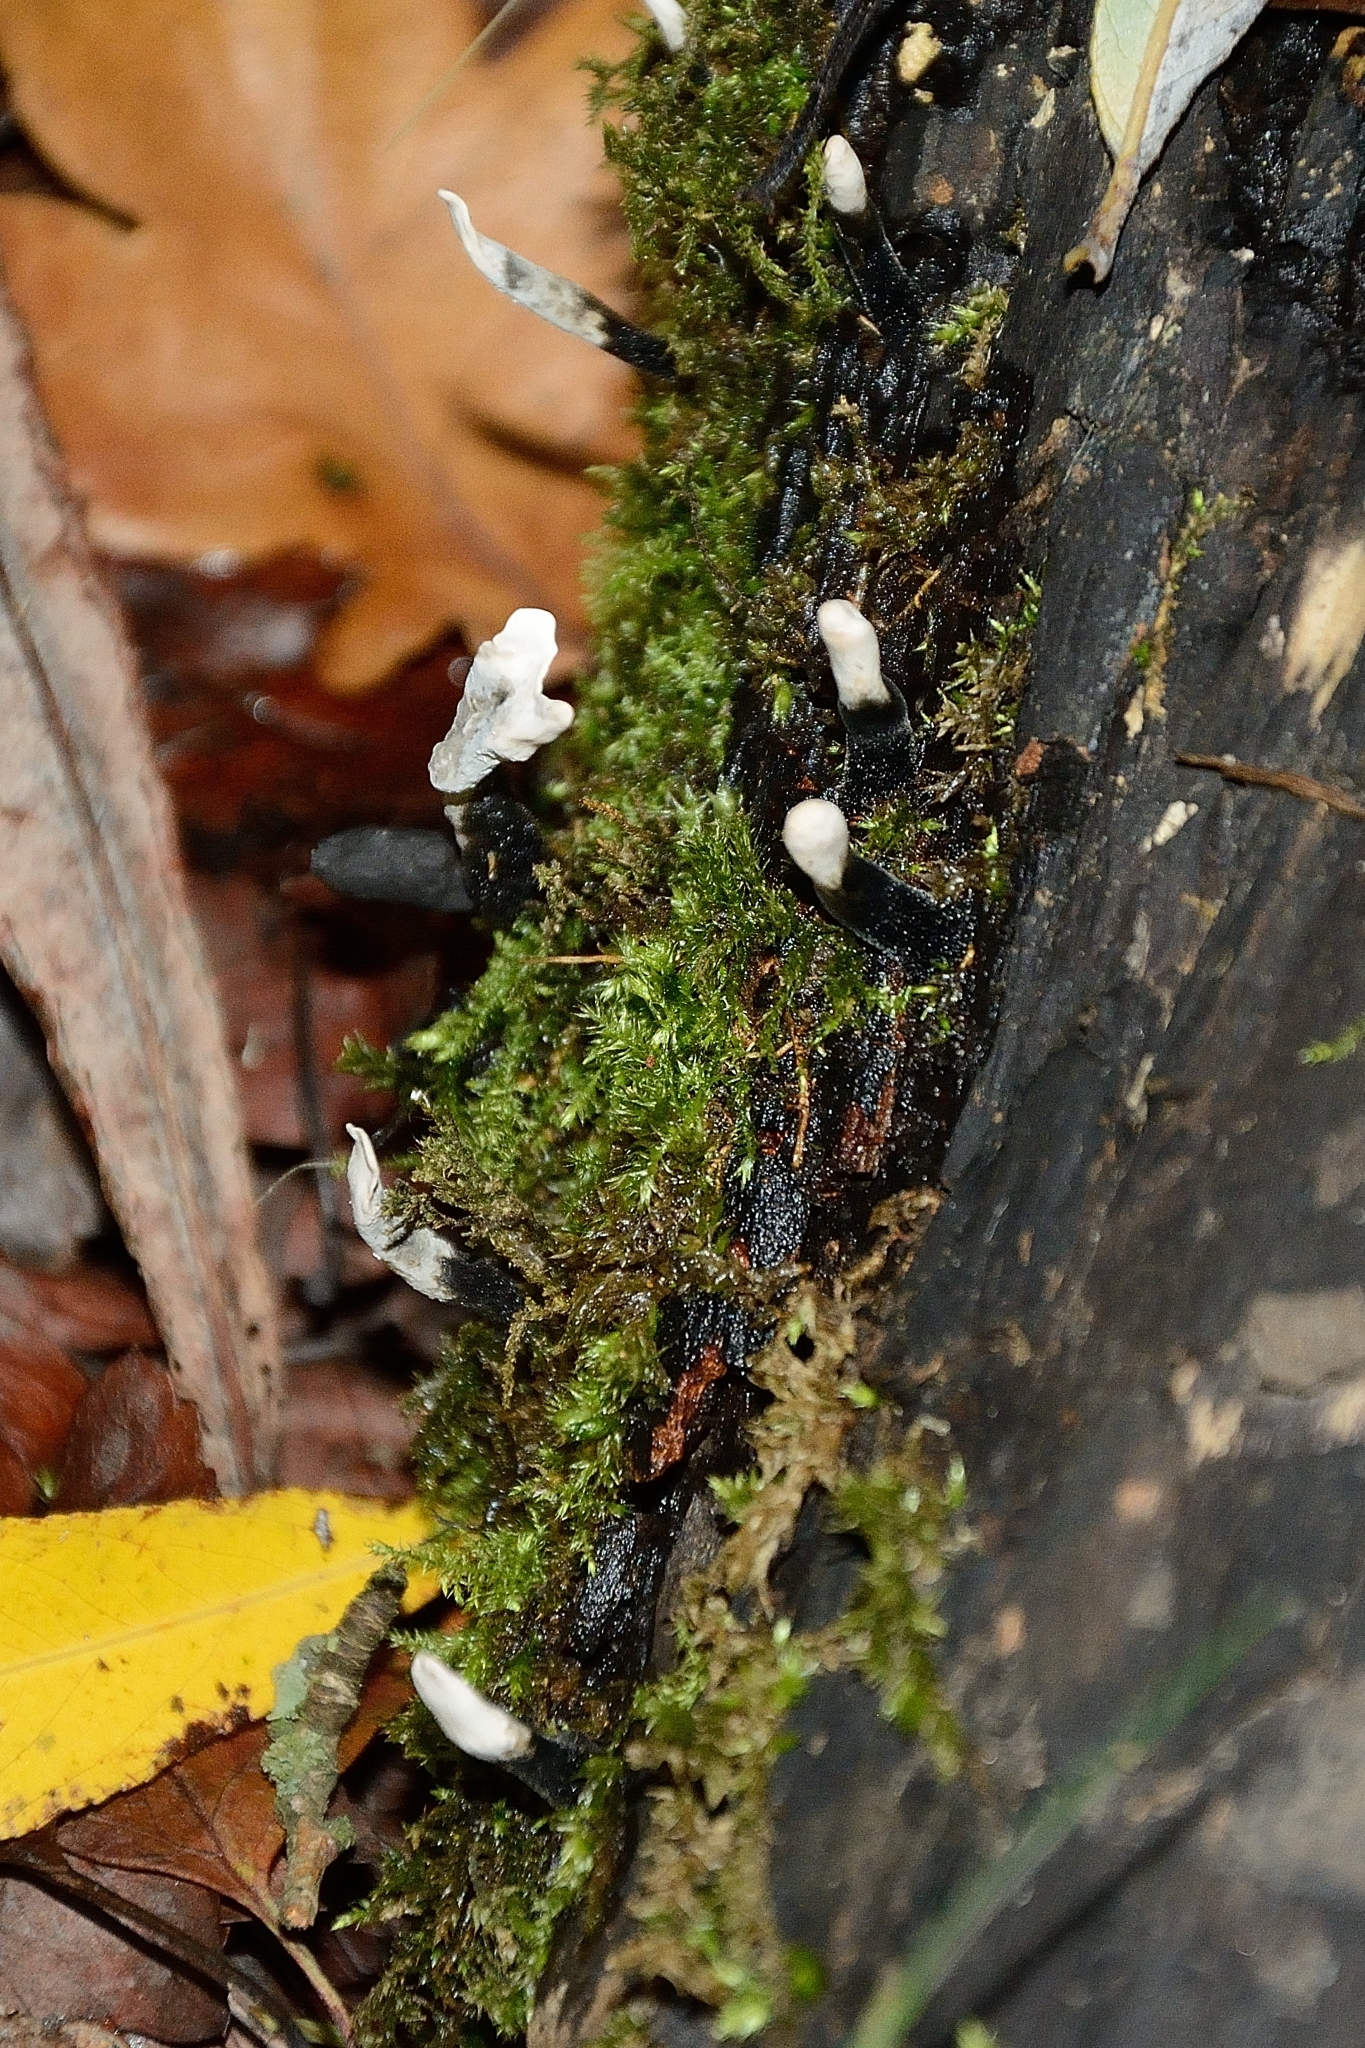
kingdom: Fungi
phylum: Ascomycota
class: Sordariomycetes
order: Xylariales
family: Xylariaceae
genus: Xylaria
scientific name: Xylaria hypoxylon
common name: Candle-snuff fungus
